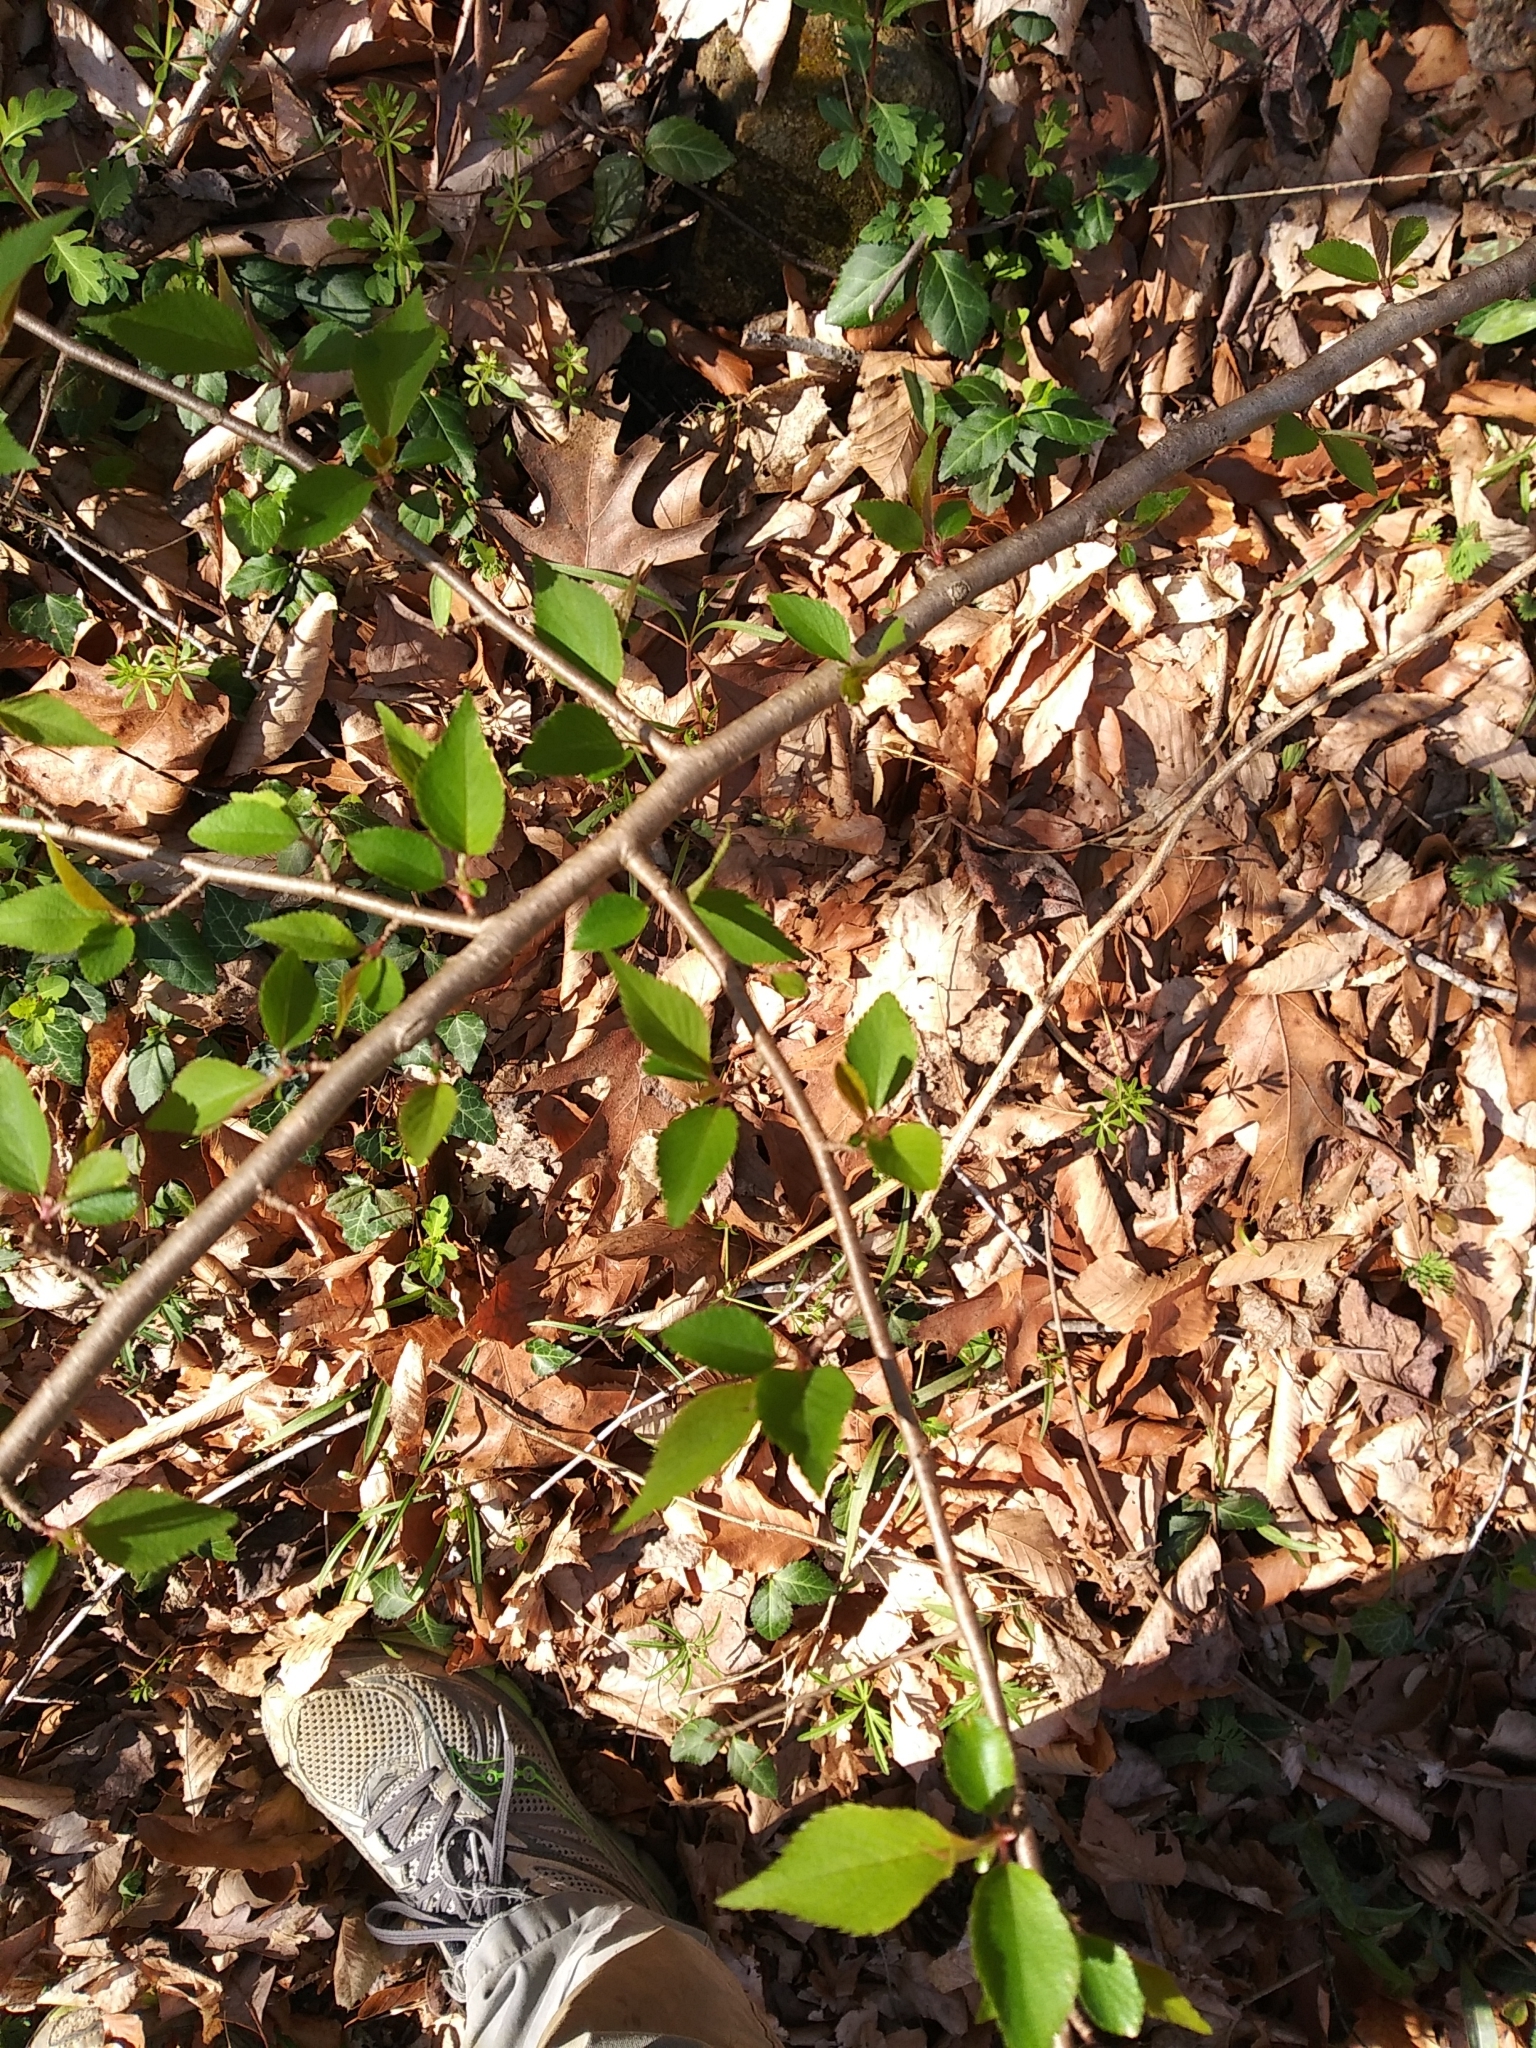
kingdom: Plantae
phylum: Tracheophyta
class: Magnoliopsida
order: Rosales
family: Rosaceae
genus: Prunus
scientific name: Prunus subhirtella
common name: Winter-flowering cherry
